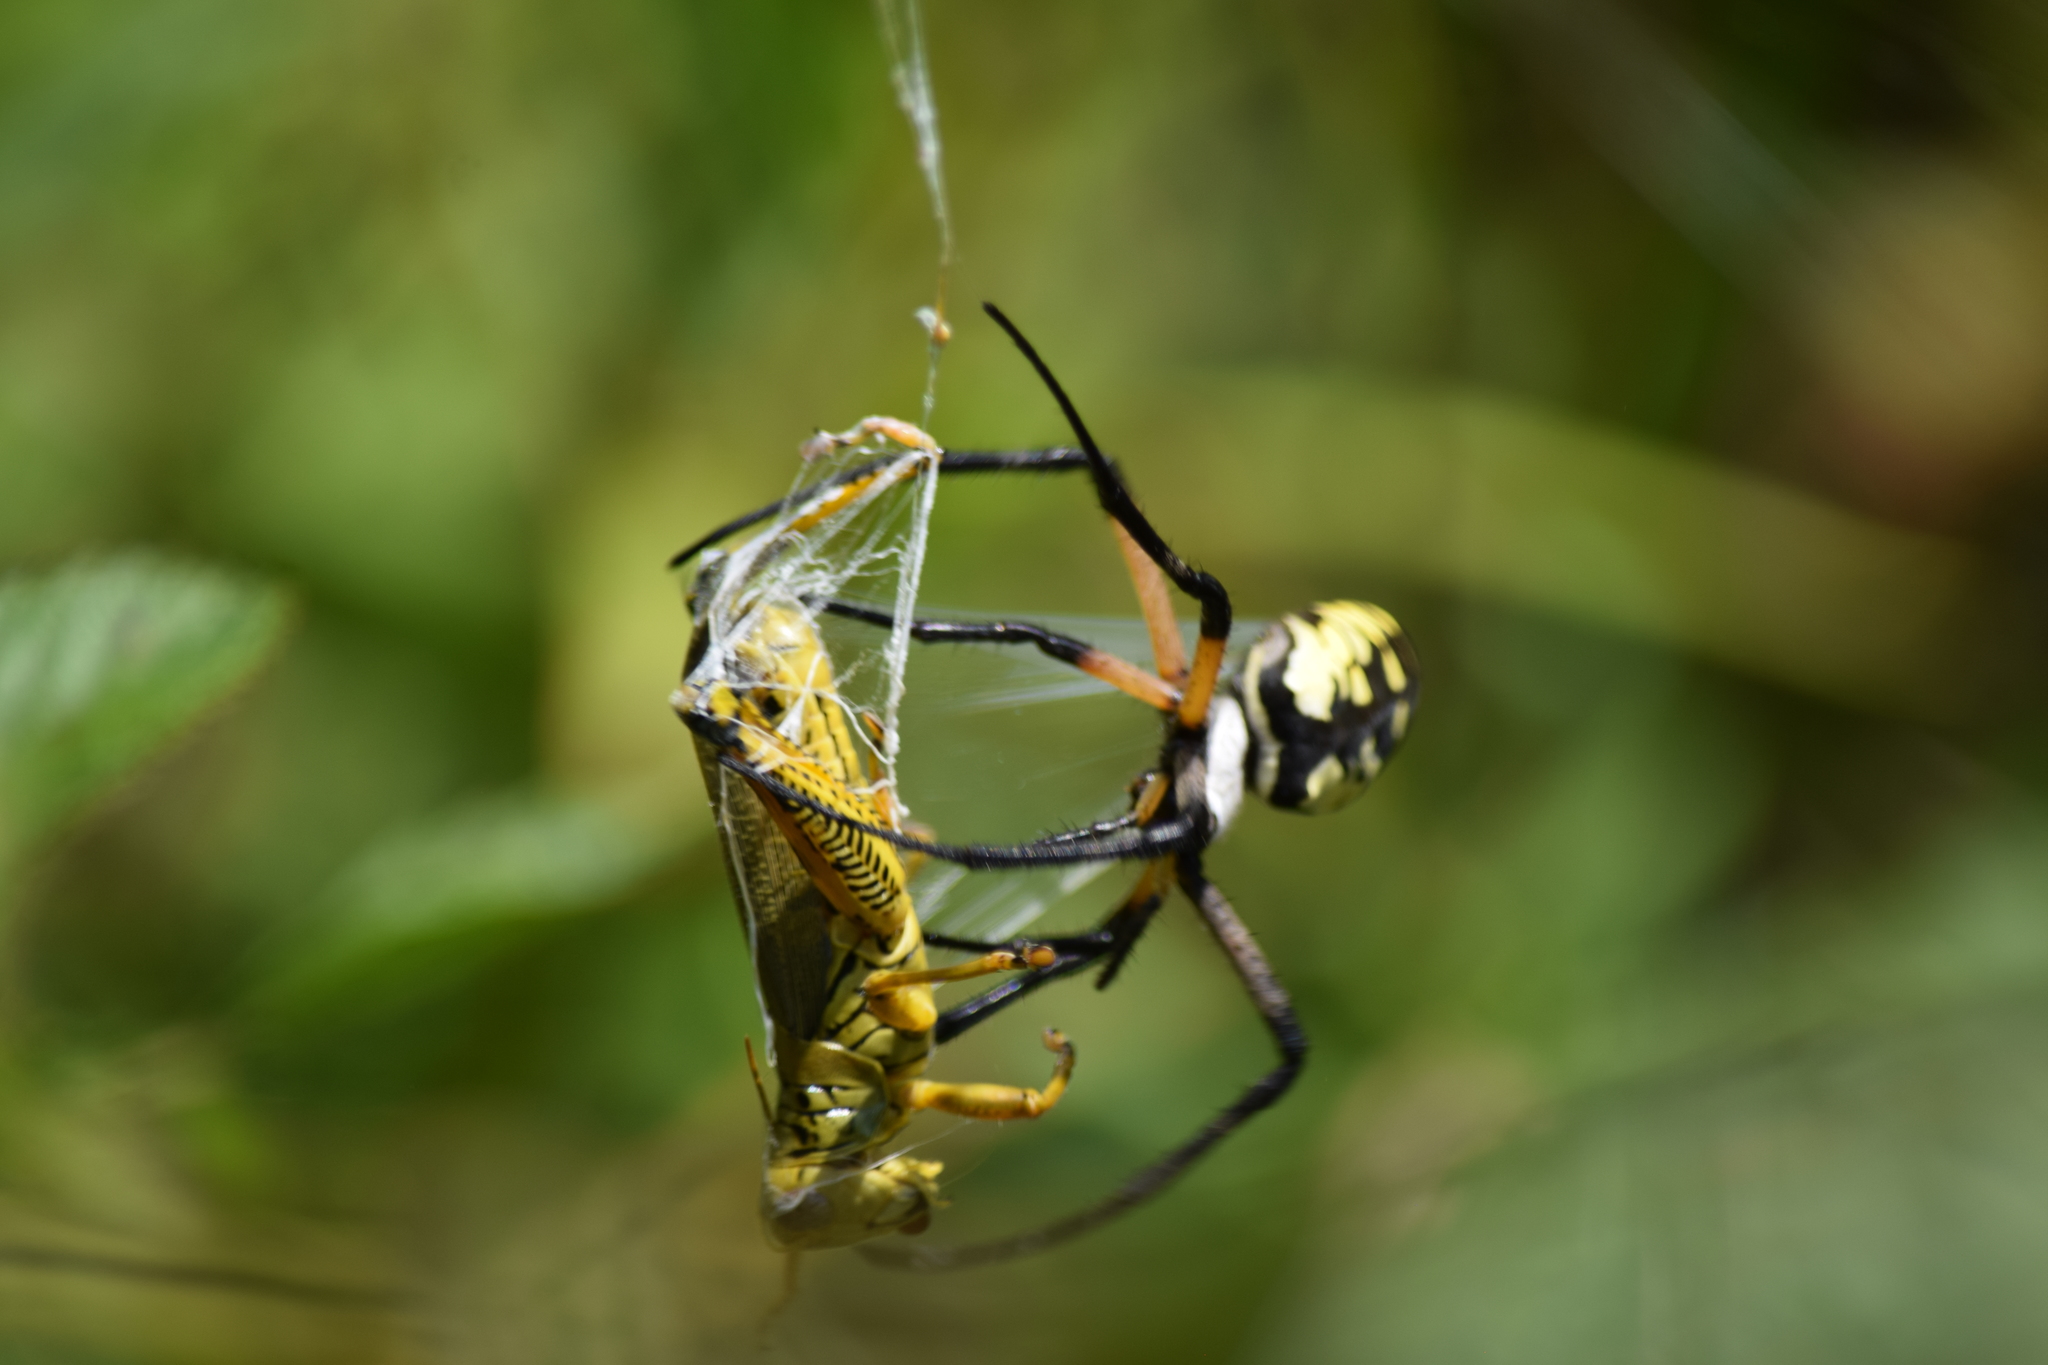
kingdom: Animalia
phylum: Arthropoda
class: Arachnida
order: Araneae
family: Araneidae
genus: Argiope
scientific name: Argiope aurantia
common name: Orb weavers
